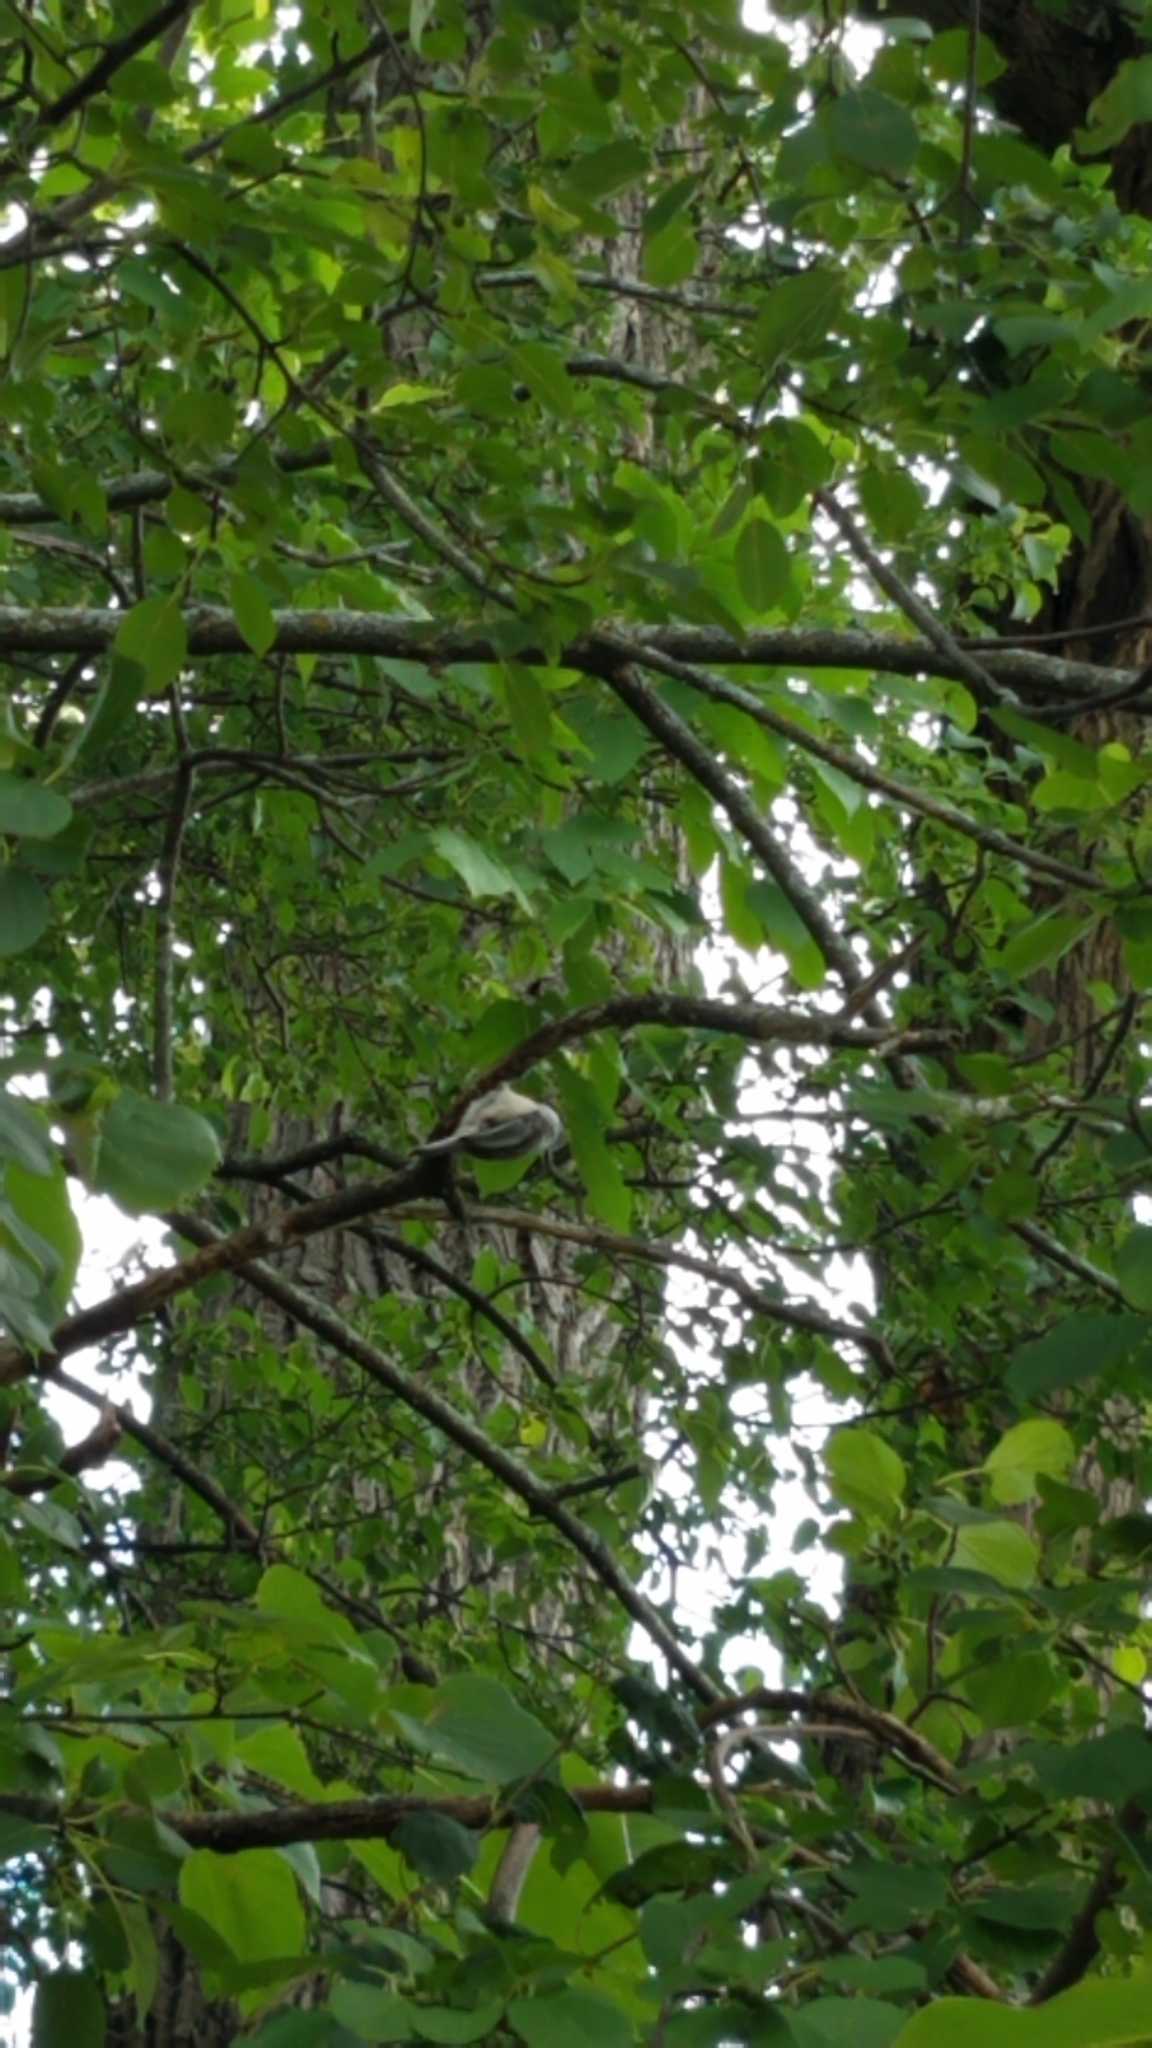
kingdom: Animalia
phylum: Chordata
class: Aves
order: Passeriformes
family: Paridae
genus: Poecile
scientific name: Poecile atricapillus
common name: Black-capped chickadee
